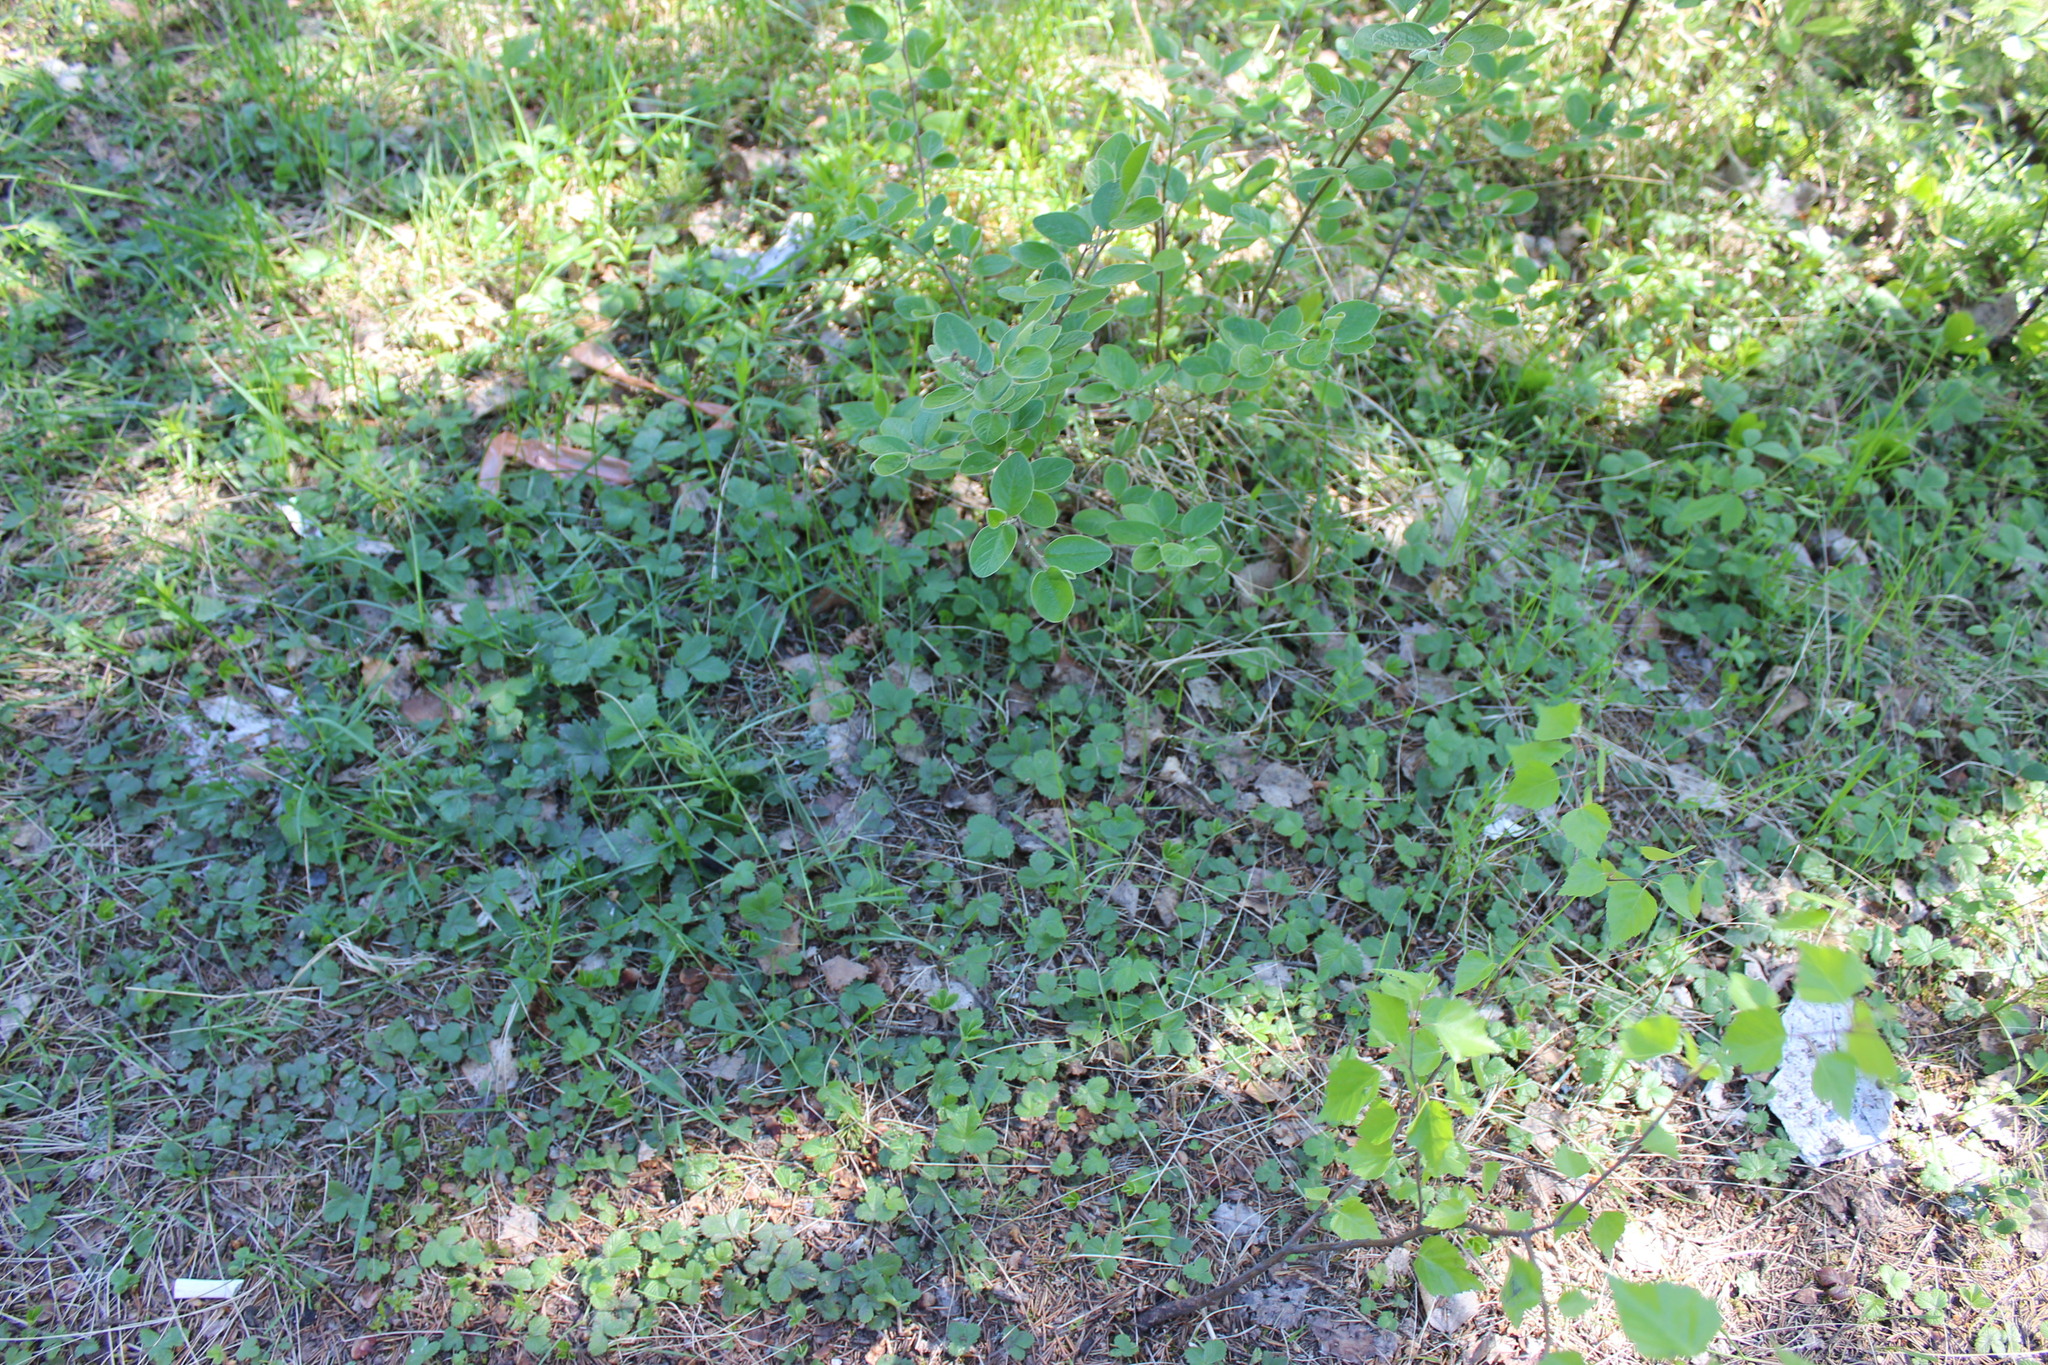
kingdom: Plantae
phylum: Tracheophyta
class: Magnoliopsida
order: Rosales
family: Rosaceae
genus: Cotoneaster
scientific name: Cotoneaster melanocarpus
